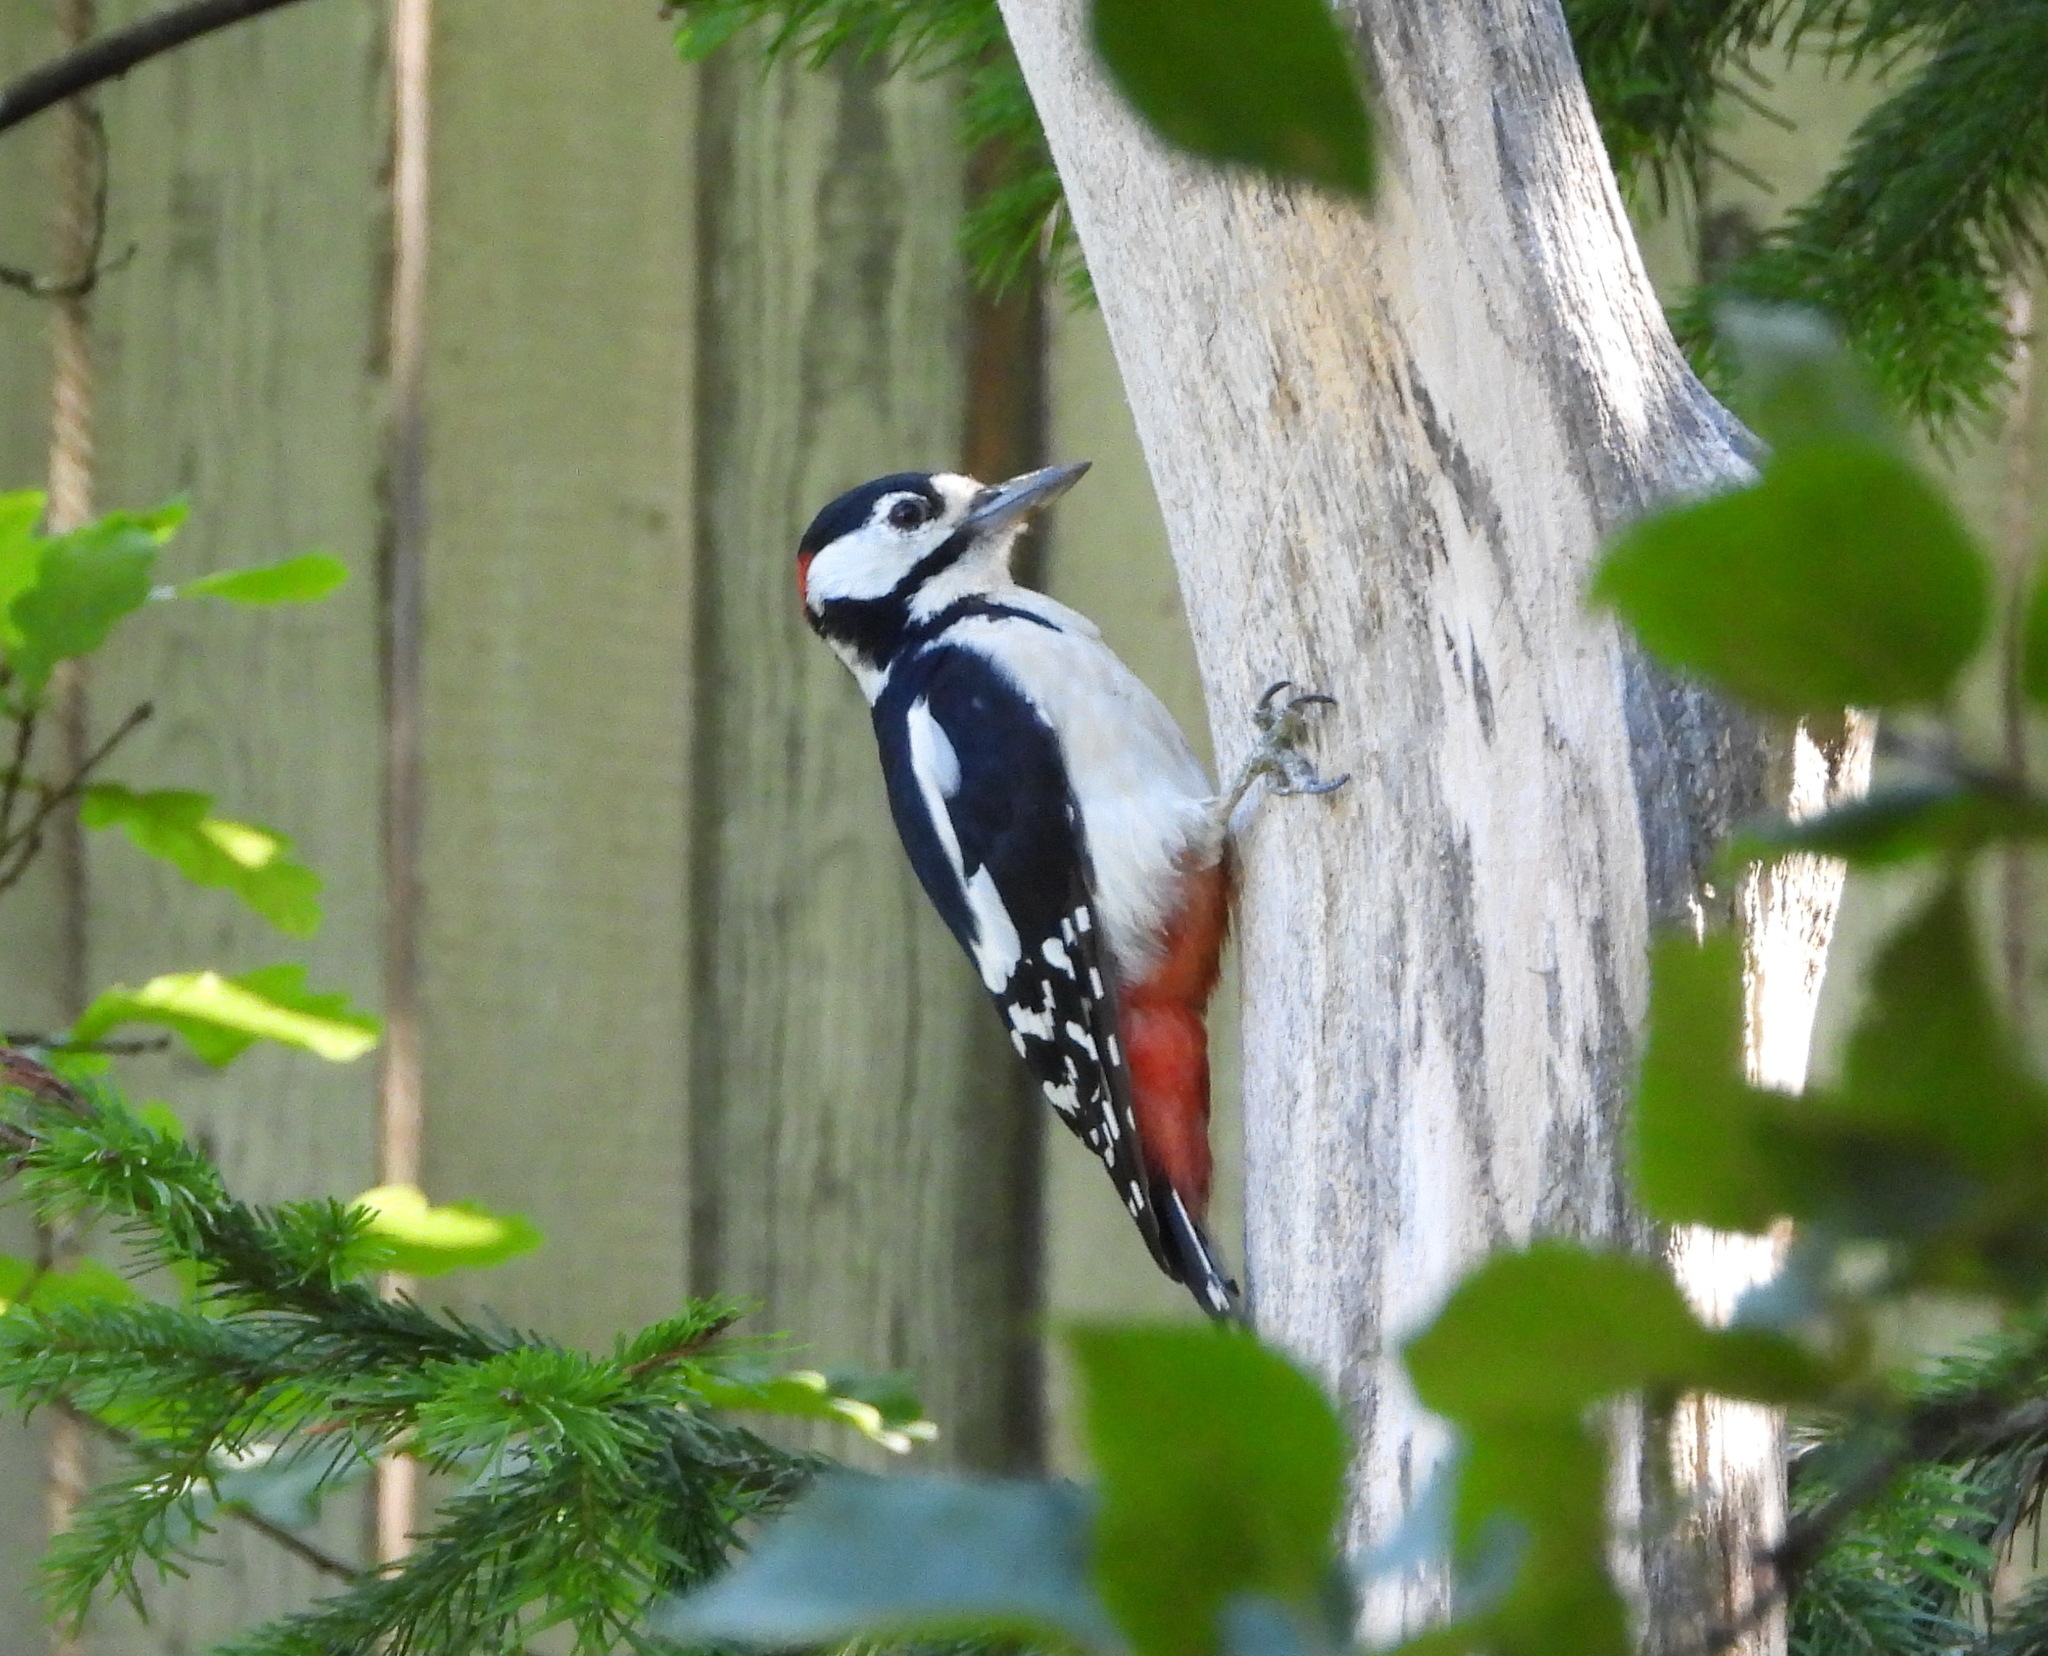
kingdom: Animalia
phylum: Chordata
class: Aves
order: Piciformes
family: Picidae
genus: Dendrocopos
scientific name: Dendrocopos major
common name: Great spotted woodpecker
